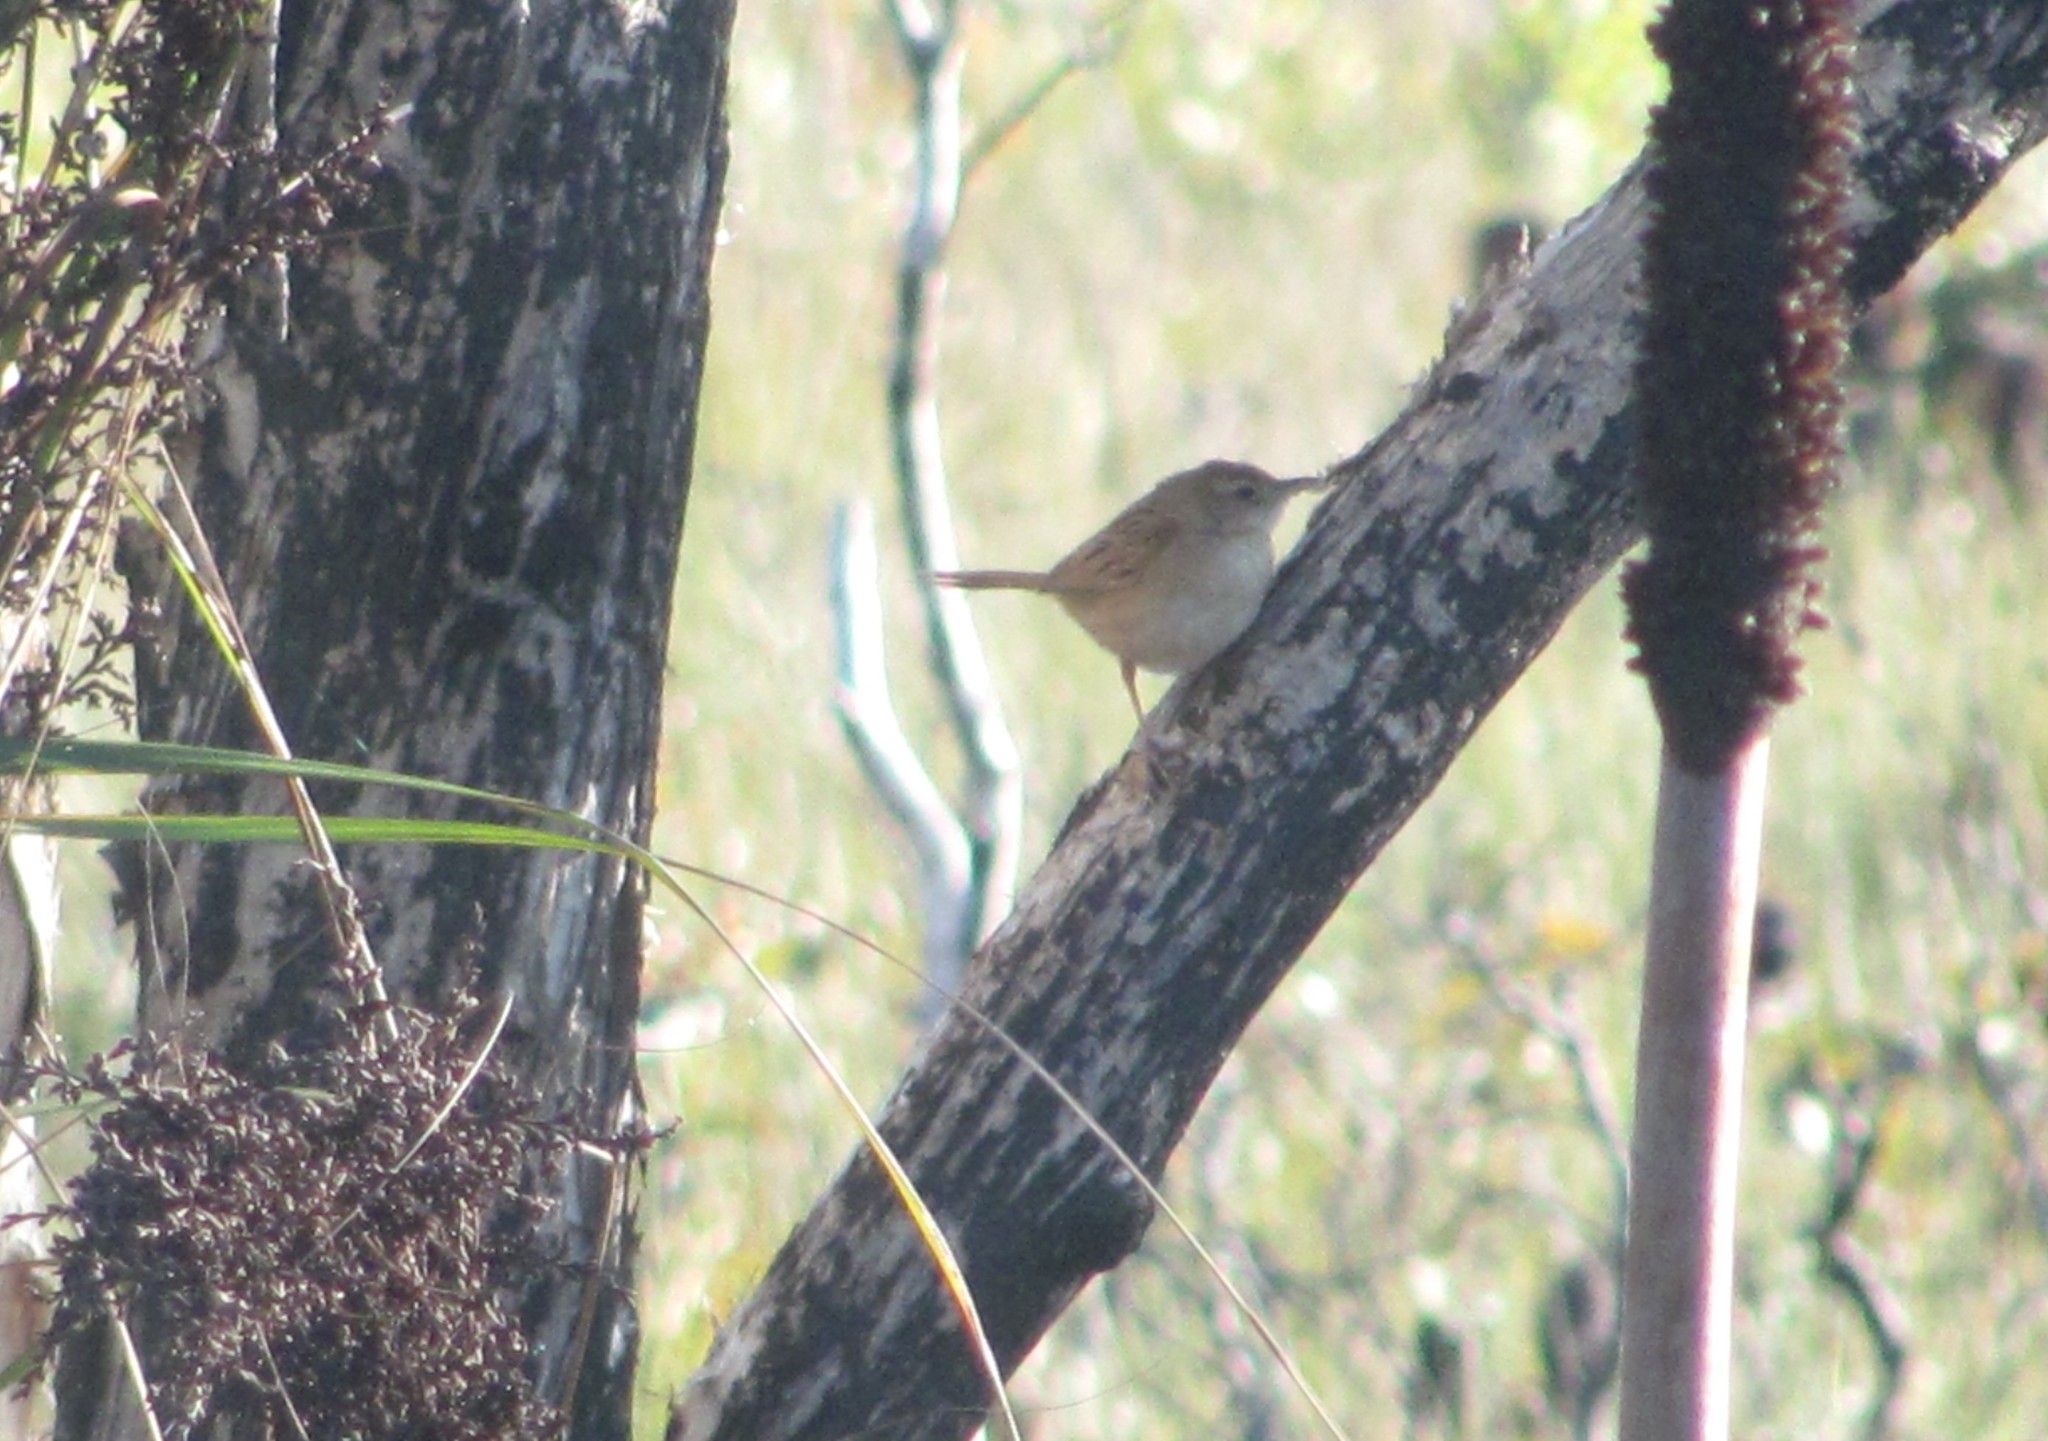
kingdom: Animalia
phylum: Chordata
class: Aves
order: Passeriformes
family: Locustellidae
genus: Megalurus
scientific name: Megalurus timoriensis
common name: Tawny grassbird
